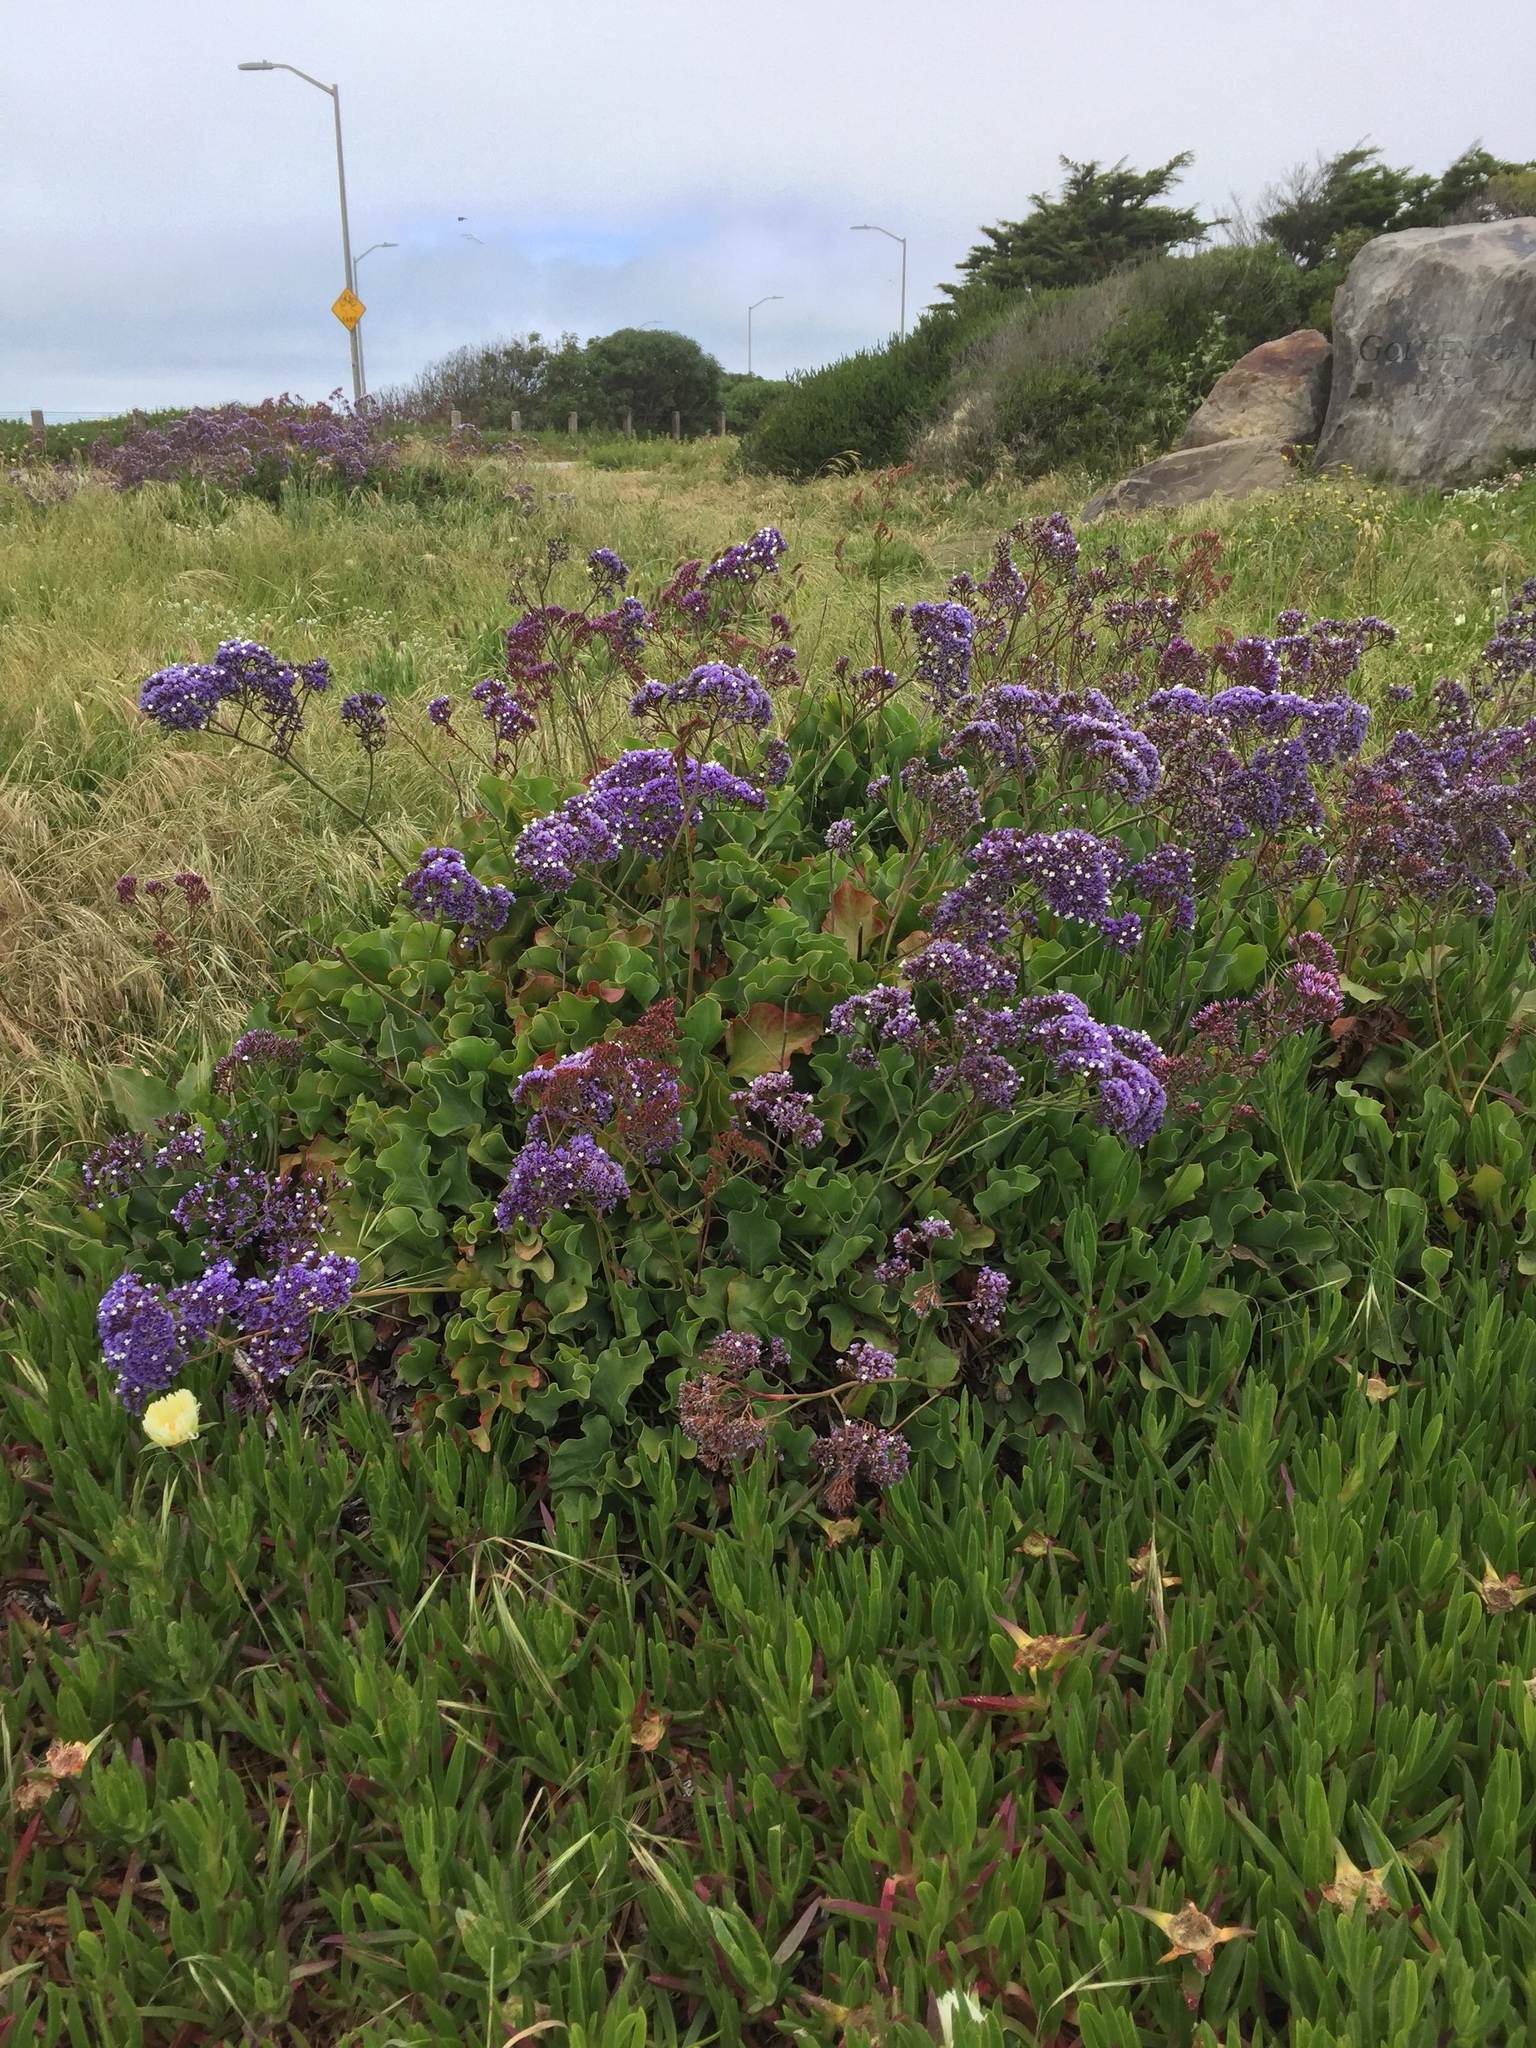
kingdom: Plantae
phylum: Tracheophyta
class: Magnoliopsida
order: Caryophyllales
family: Plumbaginaceae
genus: Limonium
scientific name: Limonium sinuatum
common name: Statice
